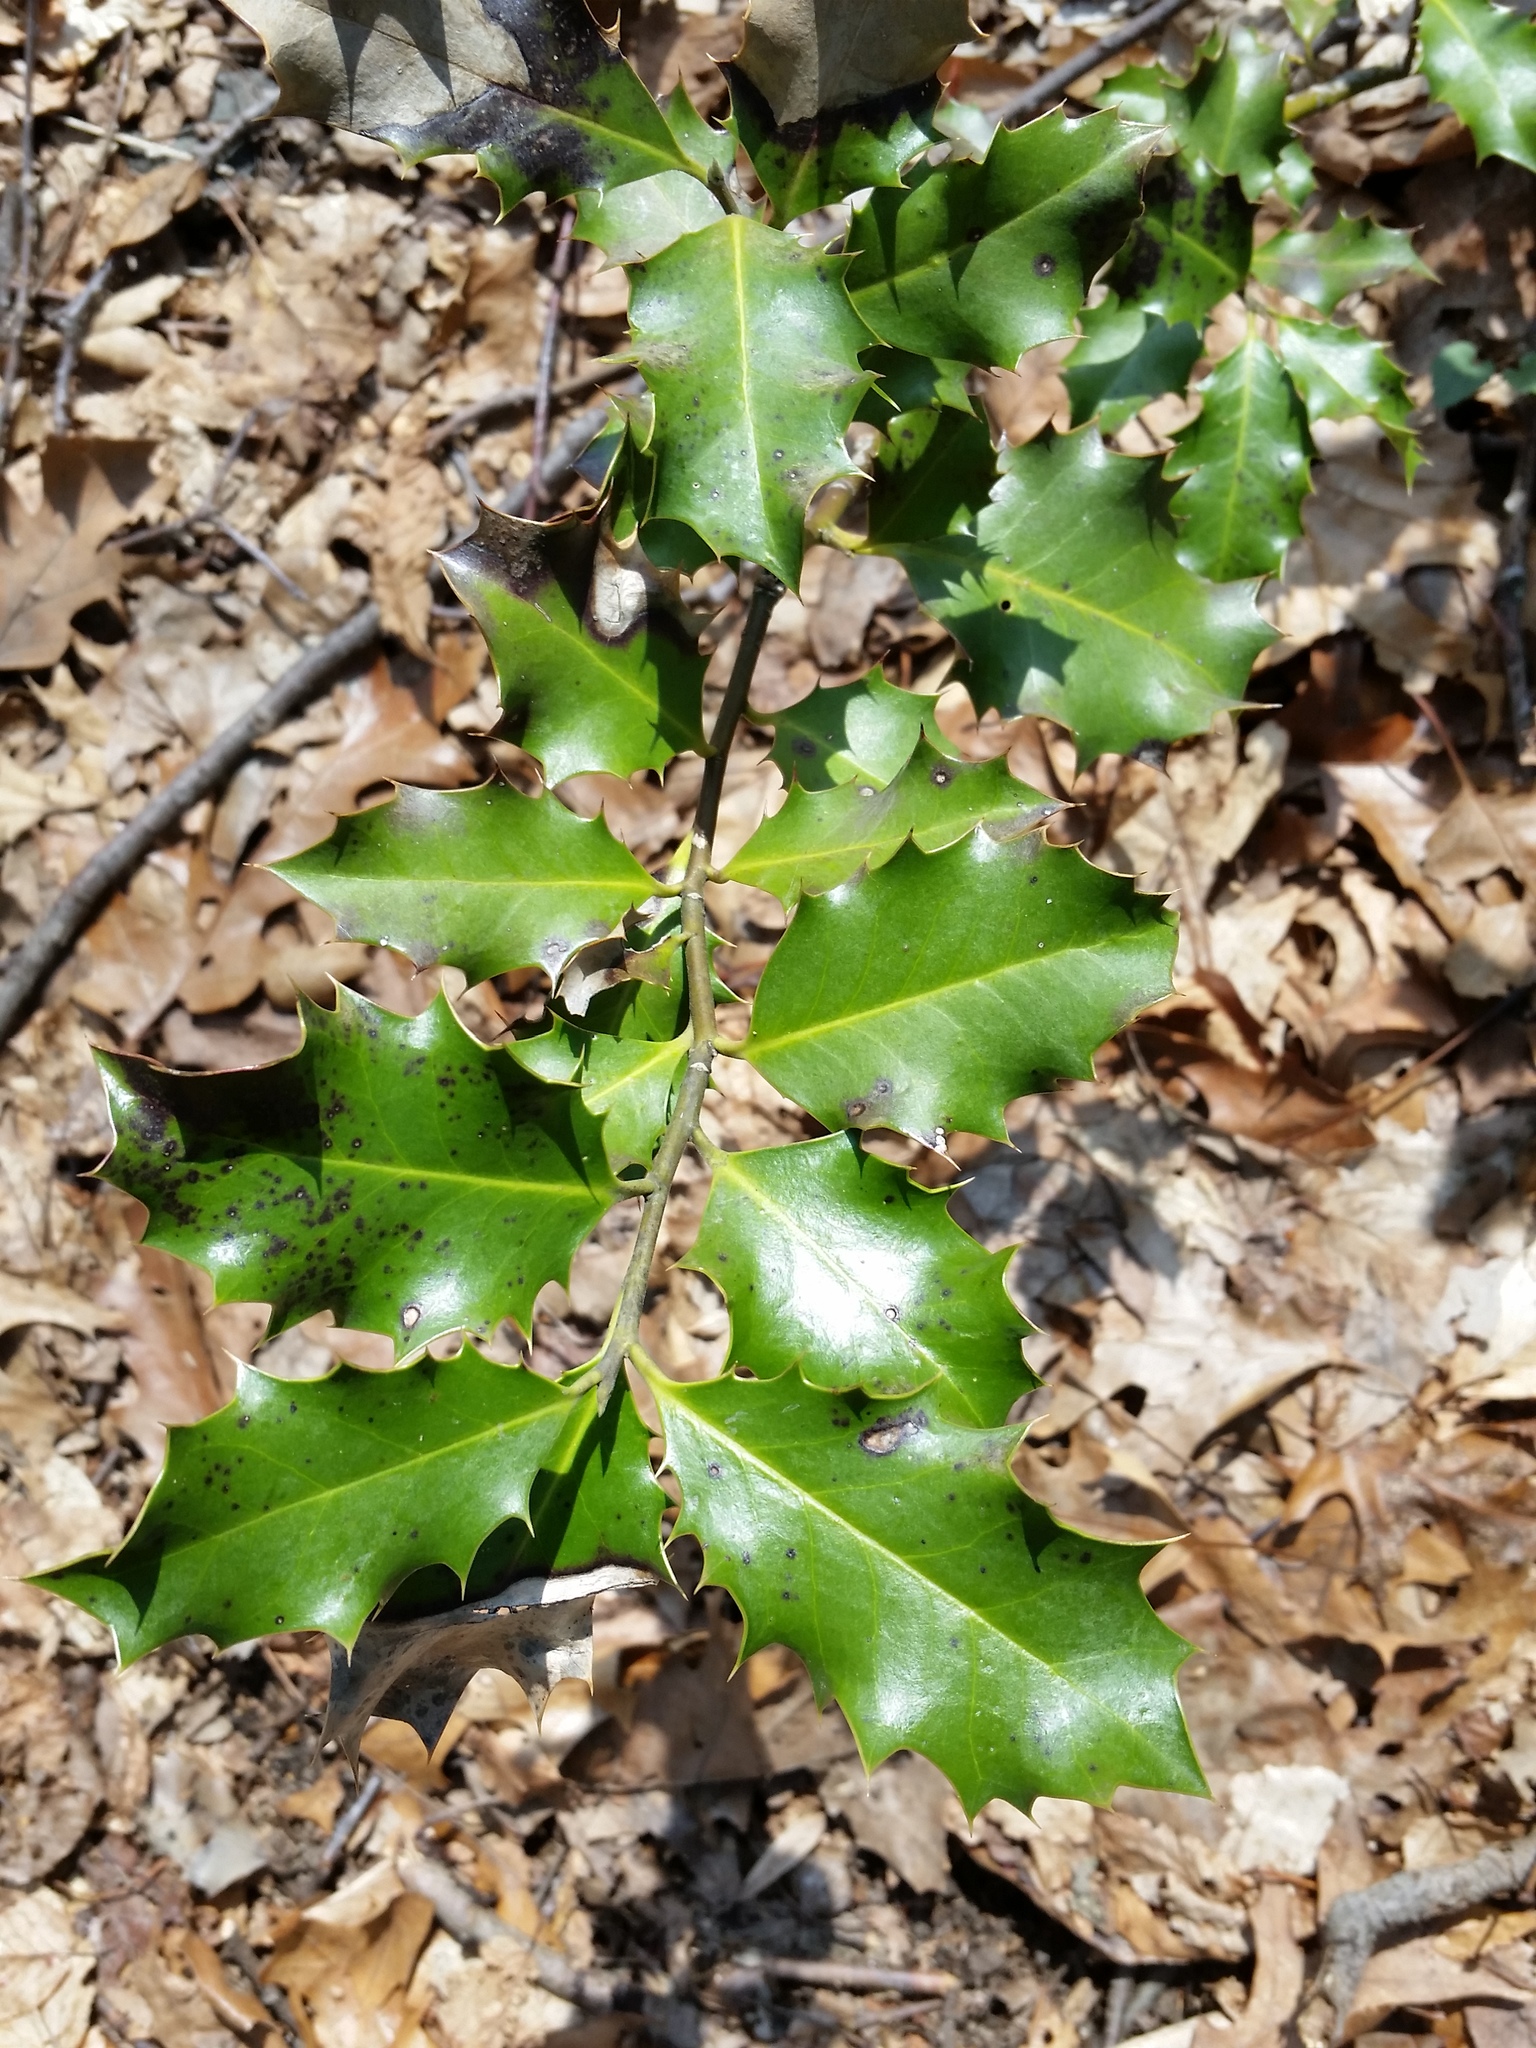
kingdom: Plantae
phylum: Tracheophyta
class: Magnoliopsida
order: Aquifoliales
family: Aquifoliaceae
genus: Ilex
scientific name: Ilex opaca
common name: American holly
